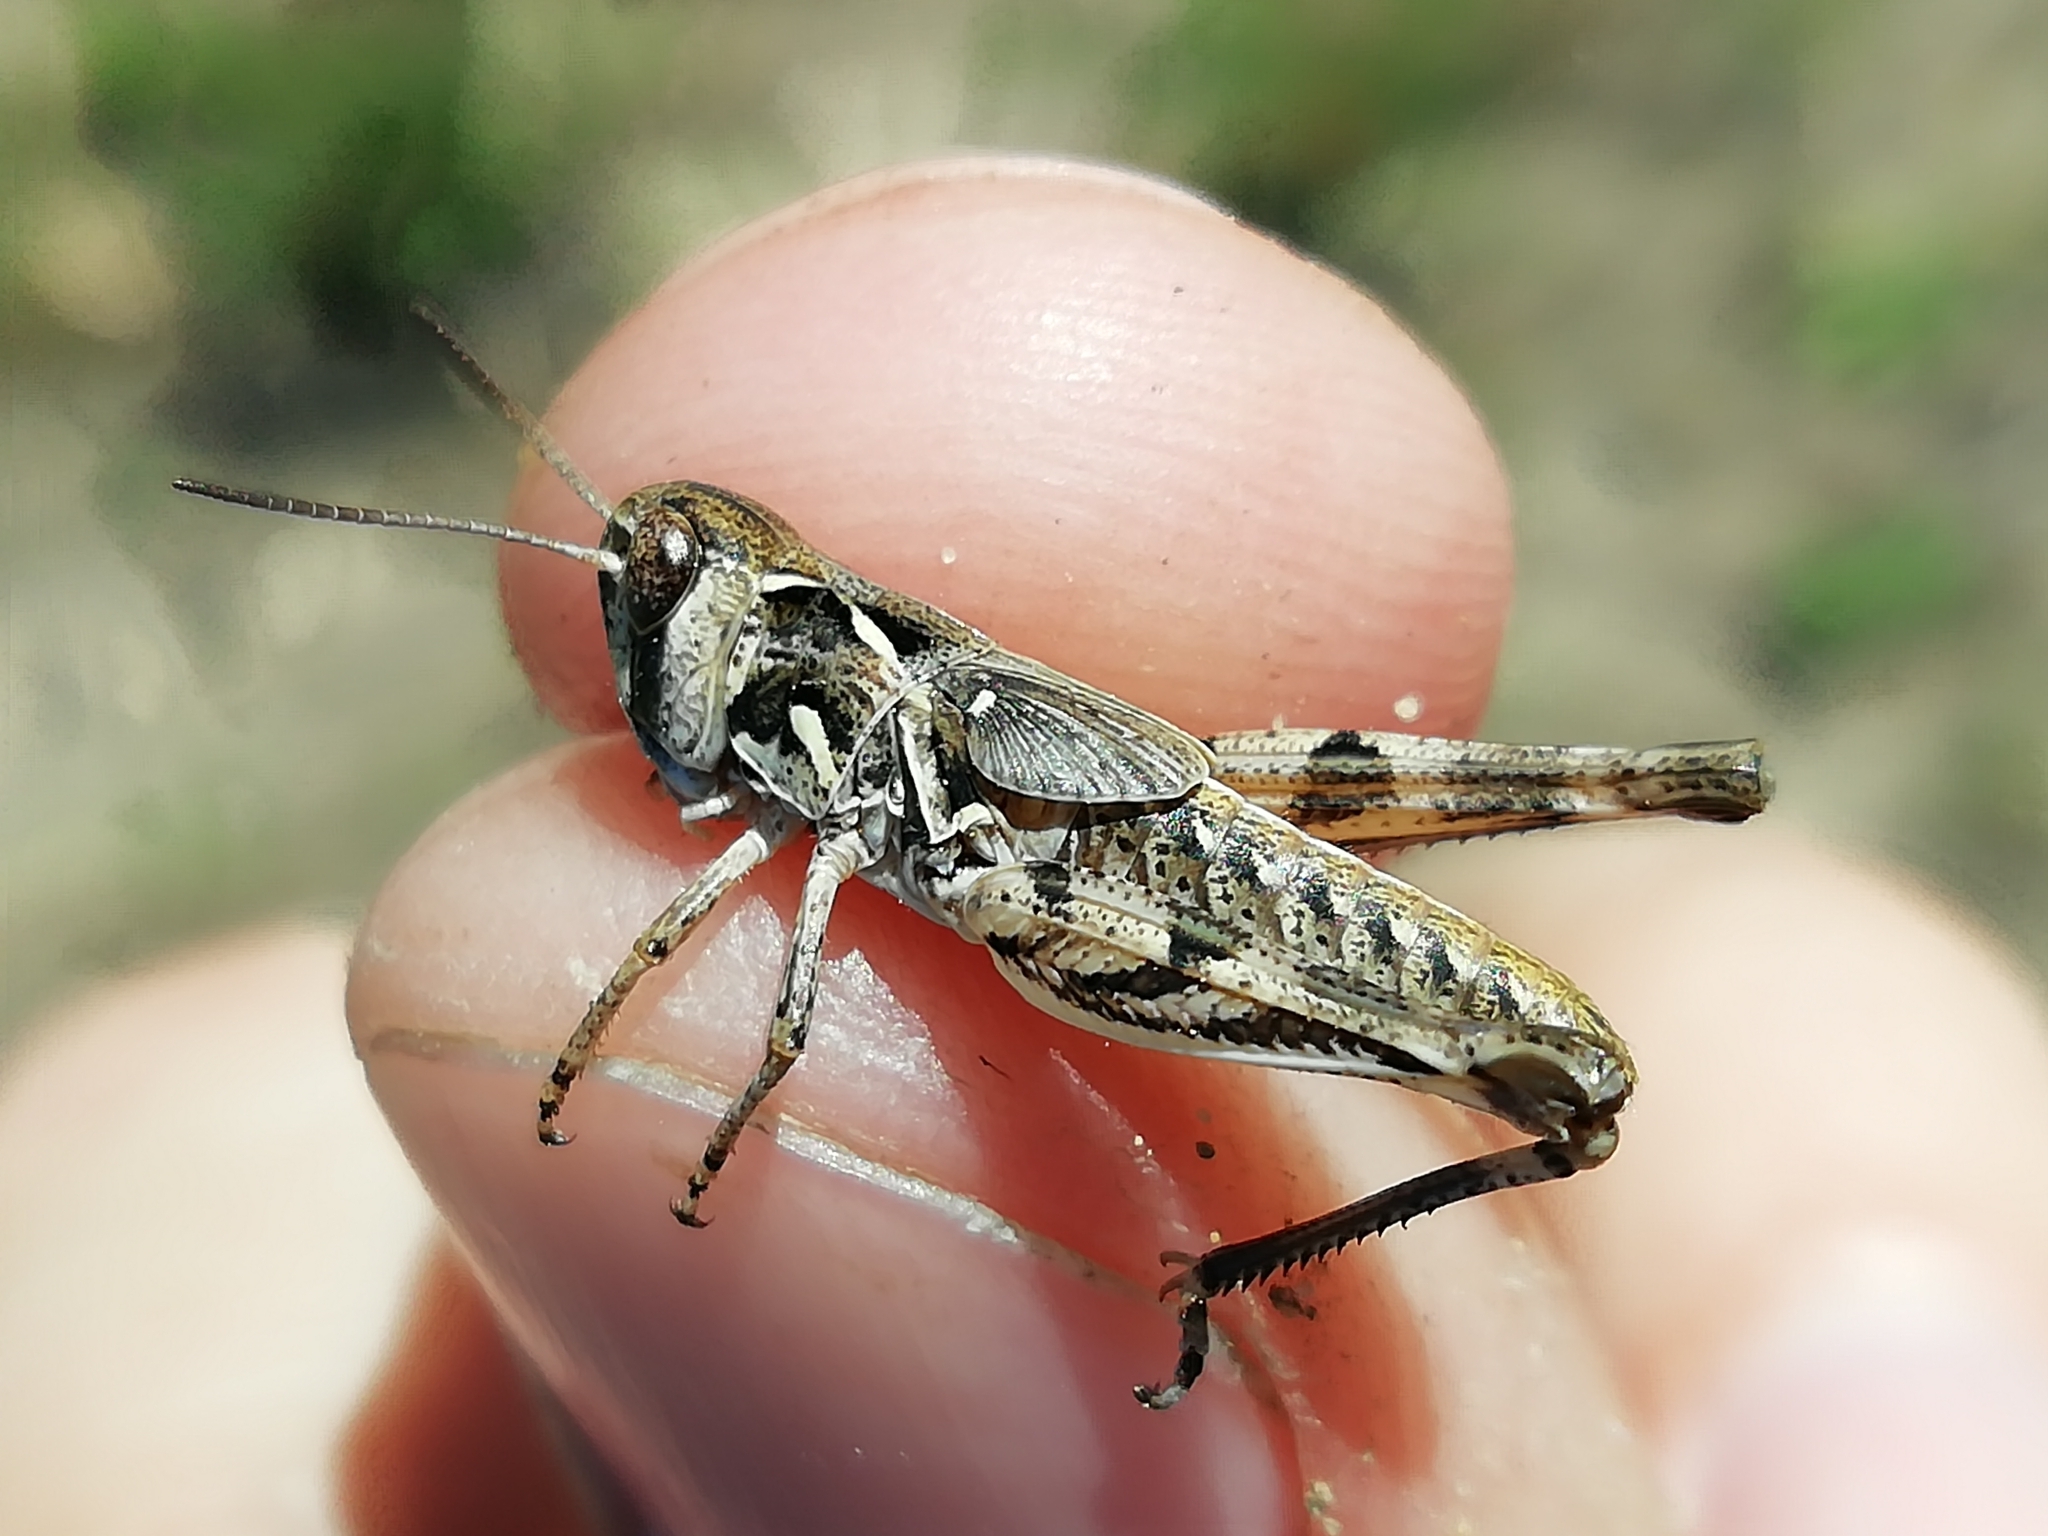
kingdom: Animalia
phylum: Arthropoda
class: Insecta
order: Orthoptera
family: Acrididae
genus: Dociostaurus
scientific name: Dociostaurus brevicollis
